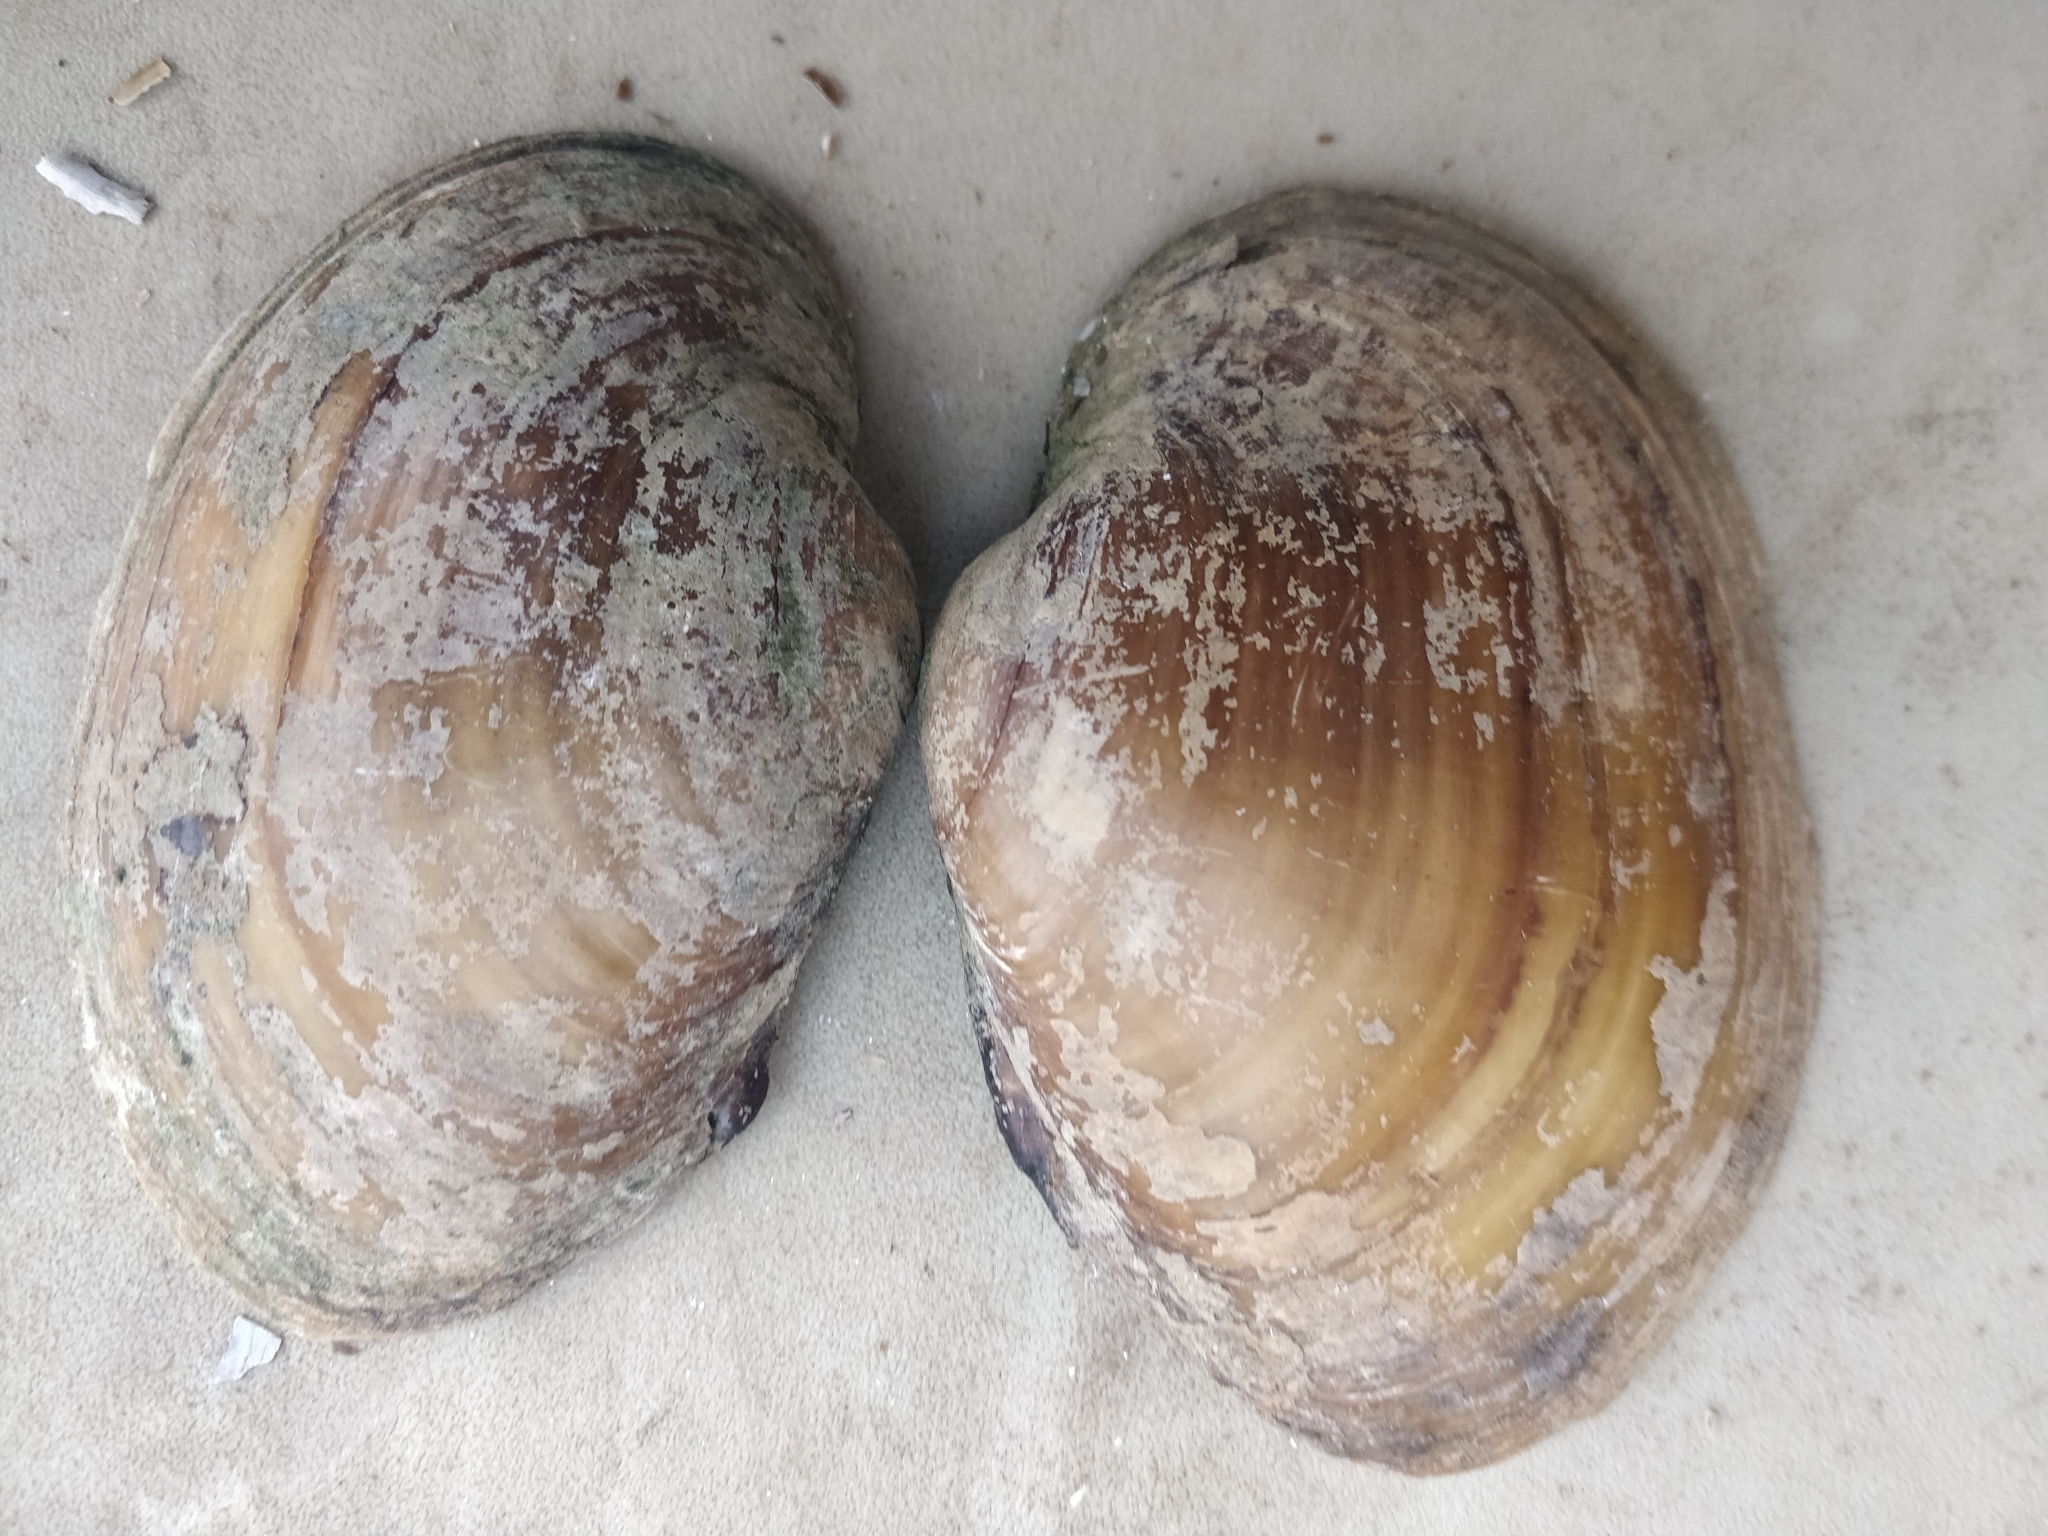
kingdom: Animalia
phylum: Mollusca
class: Bivalvia
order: Unionida
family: Unionidae
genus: Lampsilis
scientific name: Lampsilis cardium
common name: Plain pocketbook
